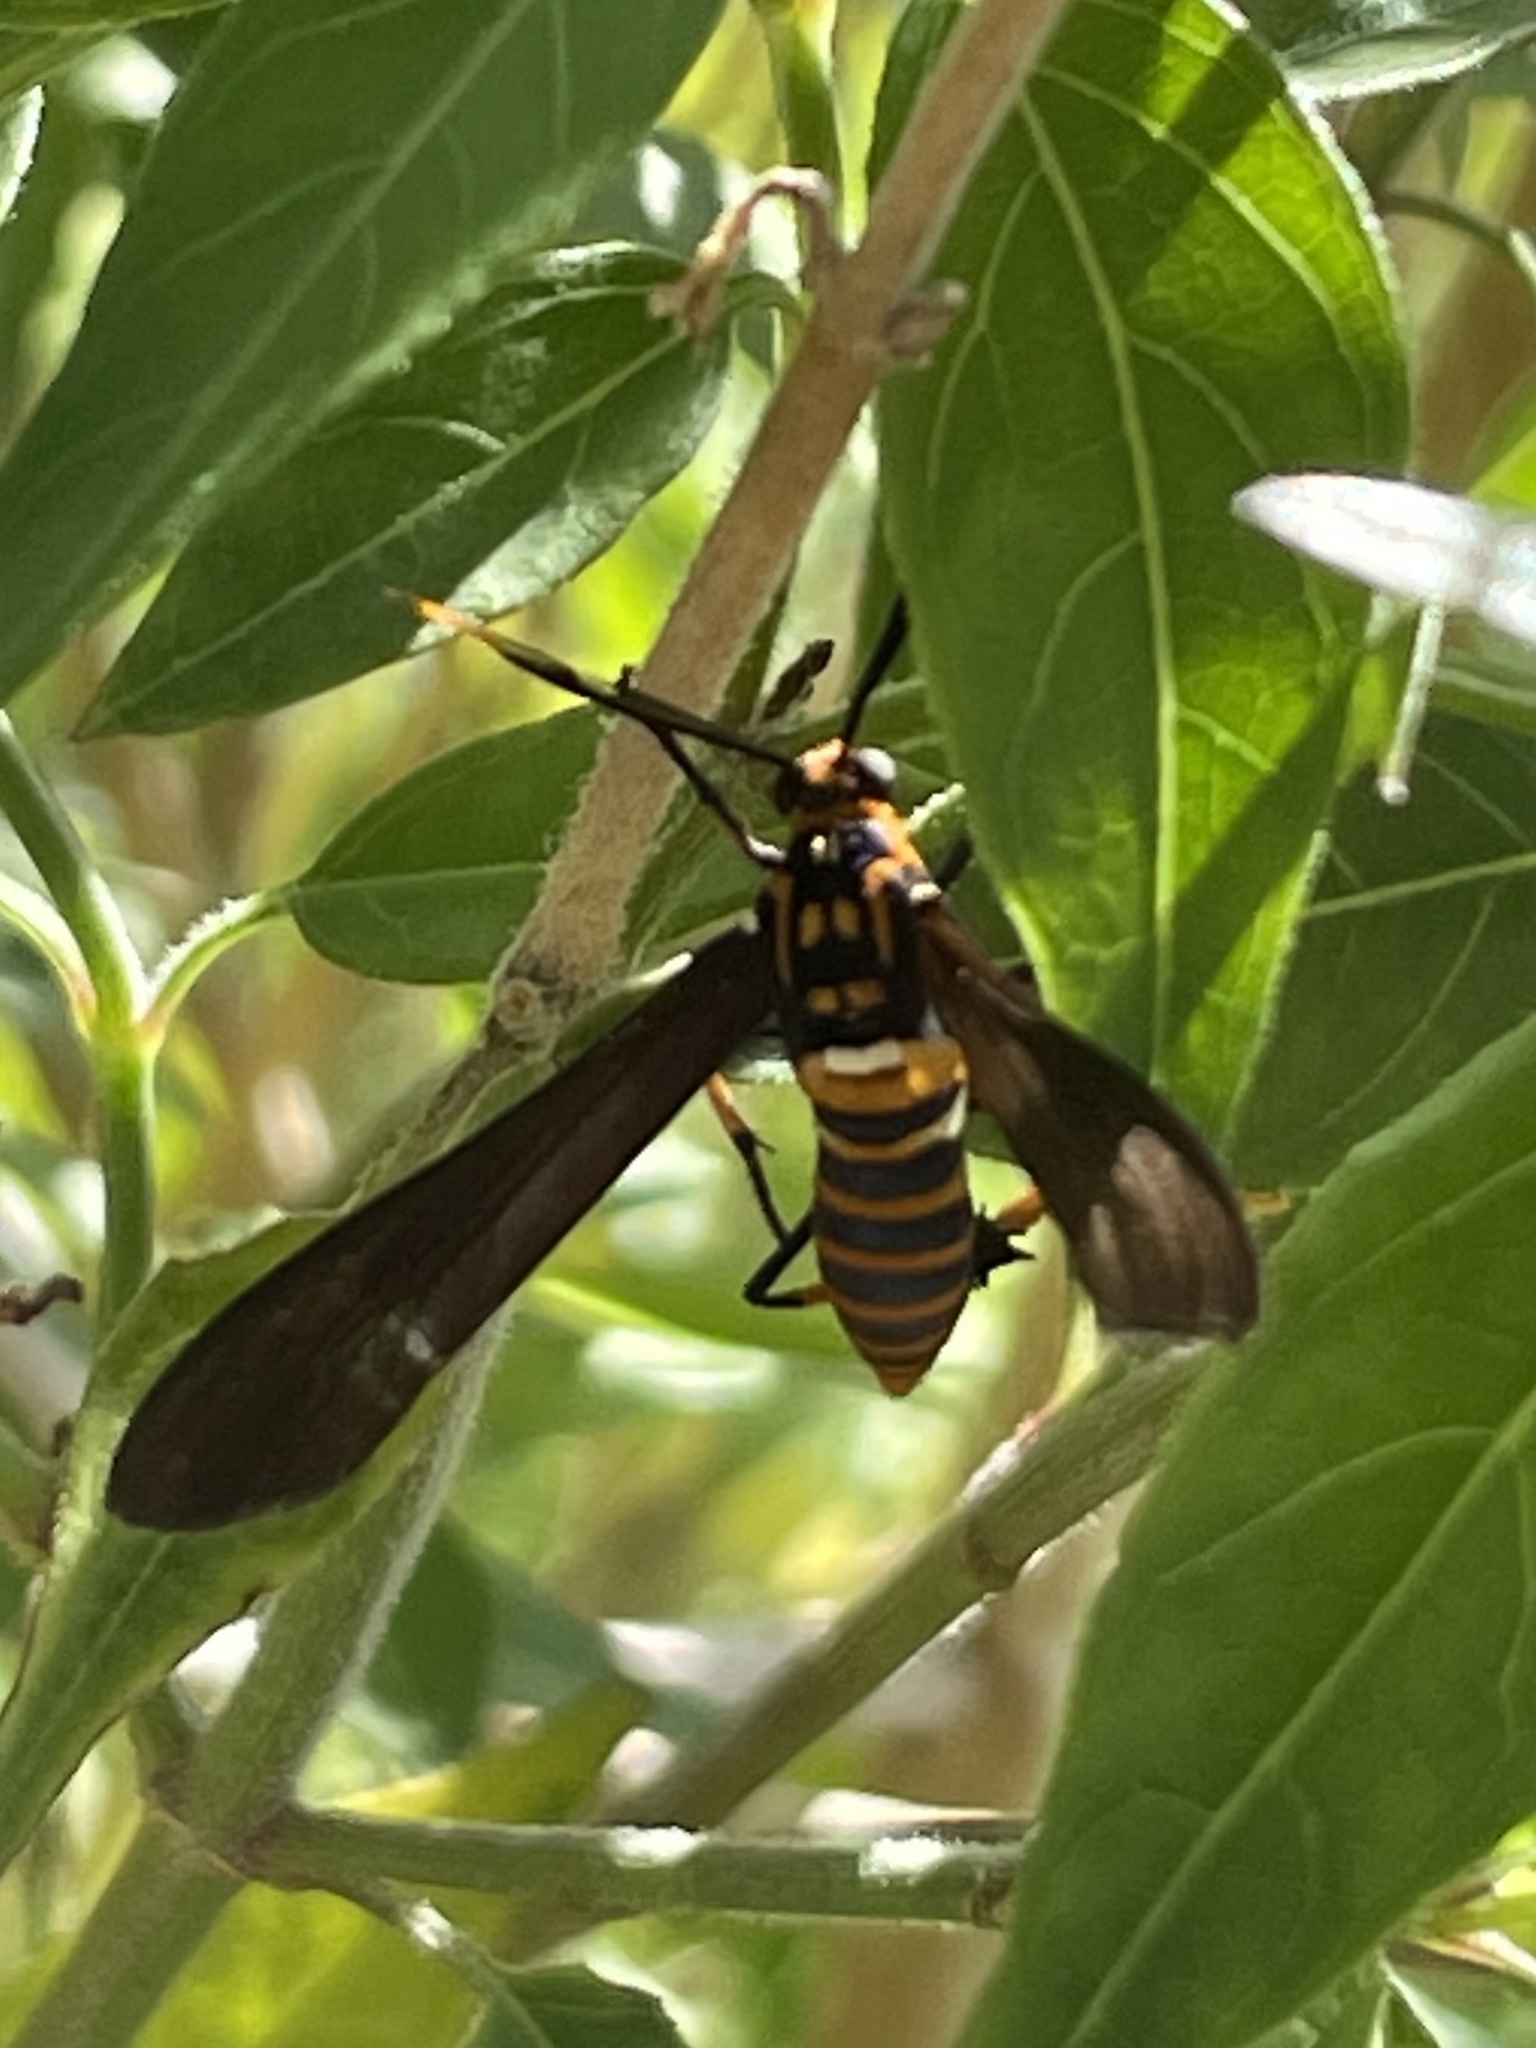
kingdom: Animalia
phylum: Arthropoda
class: Insecta
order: Lepidoptera
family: Erebidae
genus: Horama
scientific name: Horama panthalon
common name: Texas wasp moth
